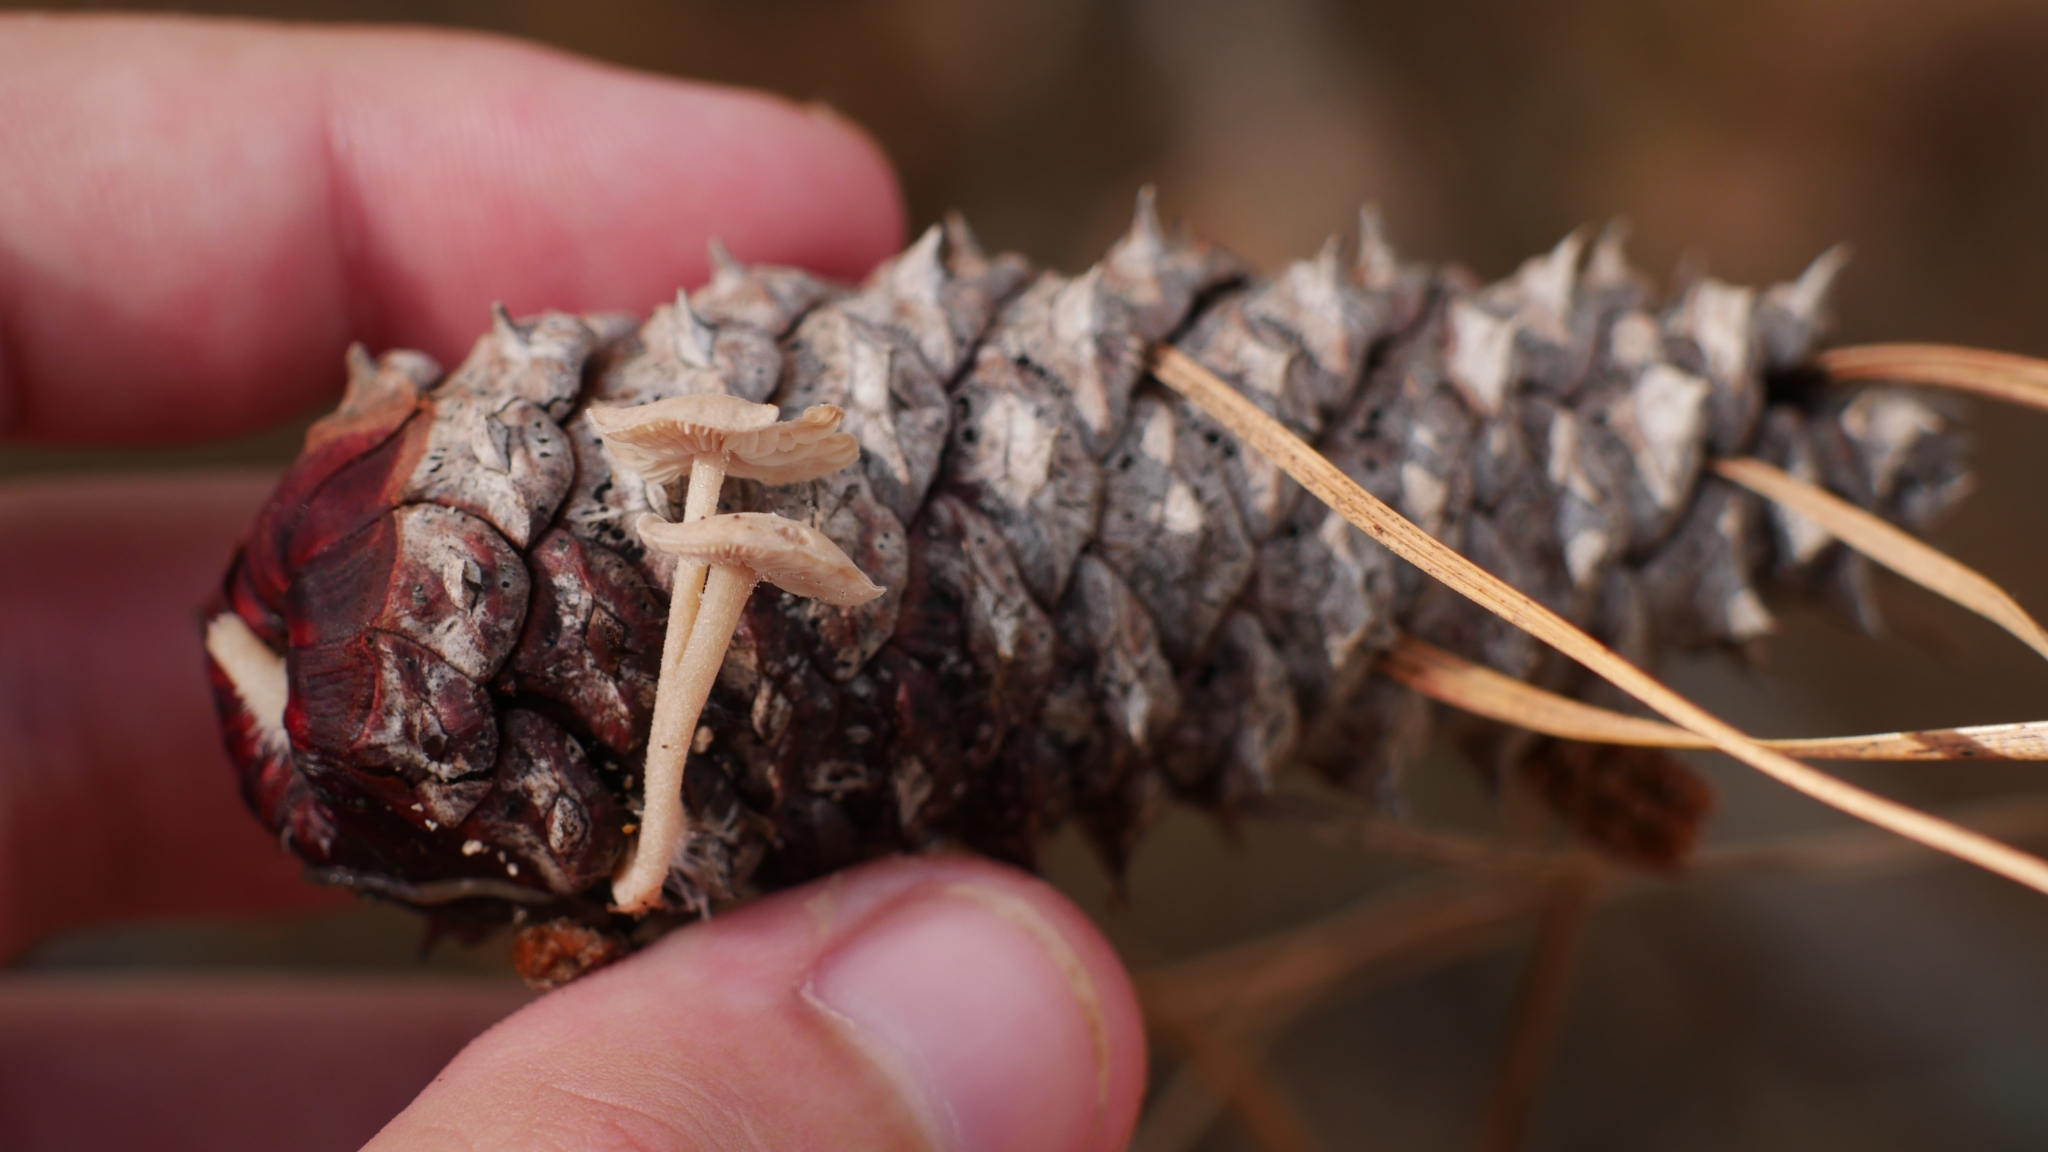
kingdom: Fungi
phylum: Basidiomycota
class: Agaricomycetes
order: Agaricales
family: Marasmiaceae
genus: Baeospora
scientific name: Baeospora myosura
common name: Conifercone cap
